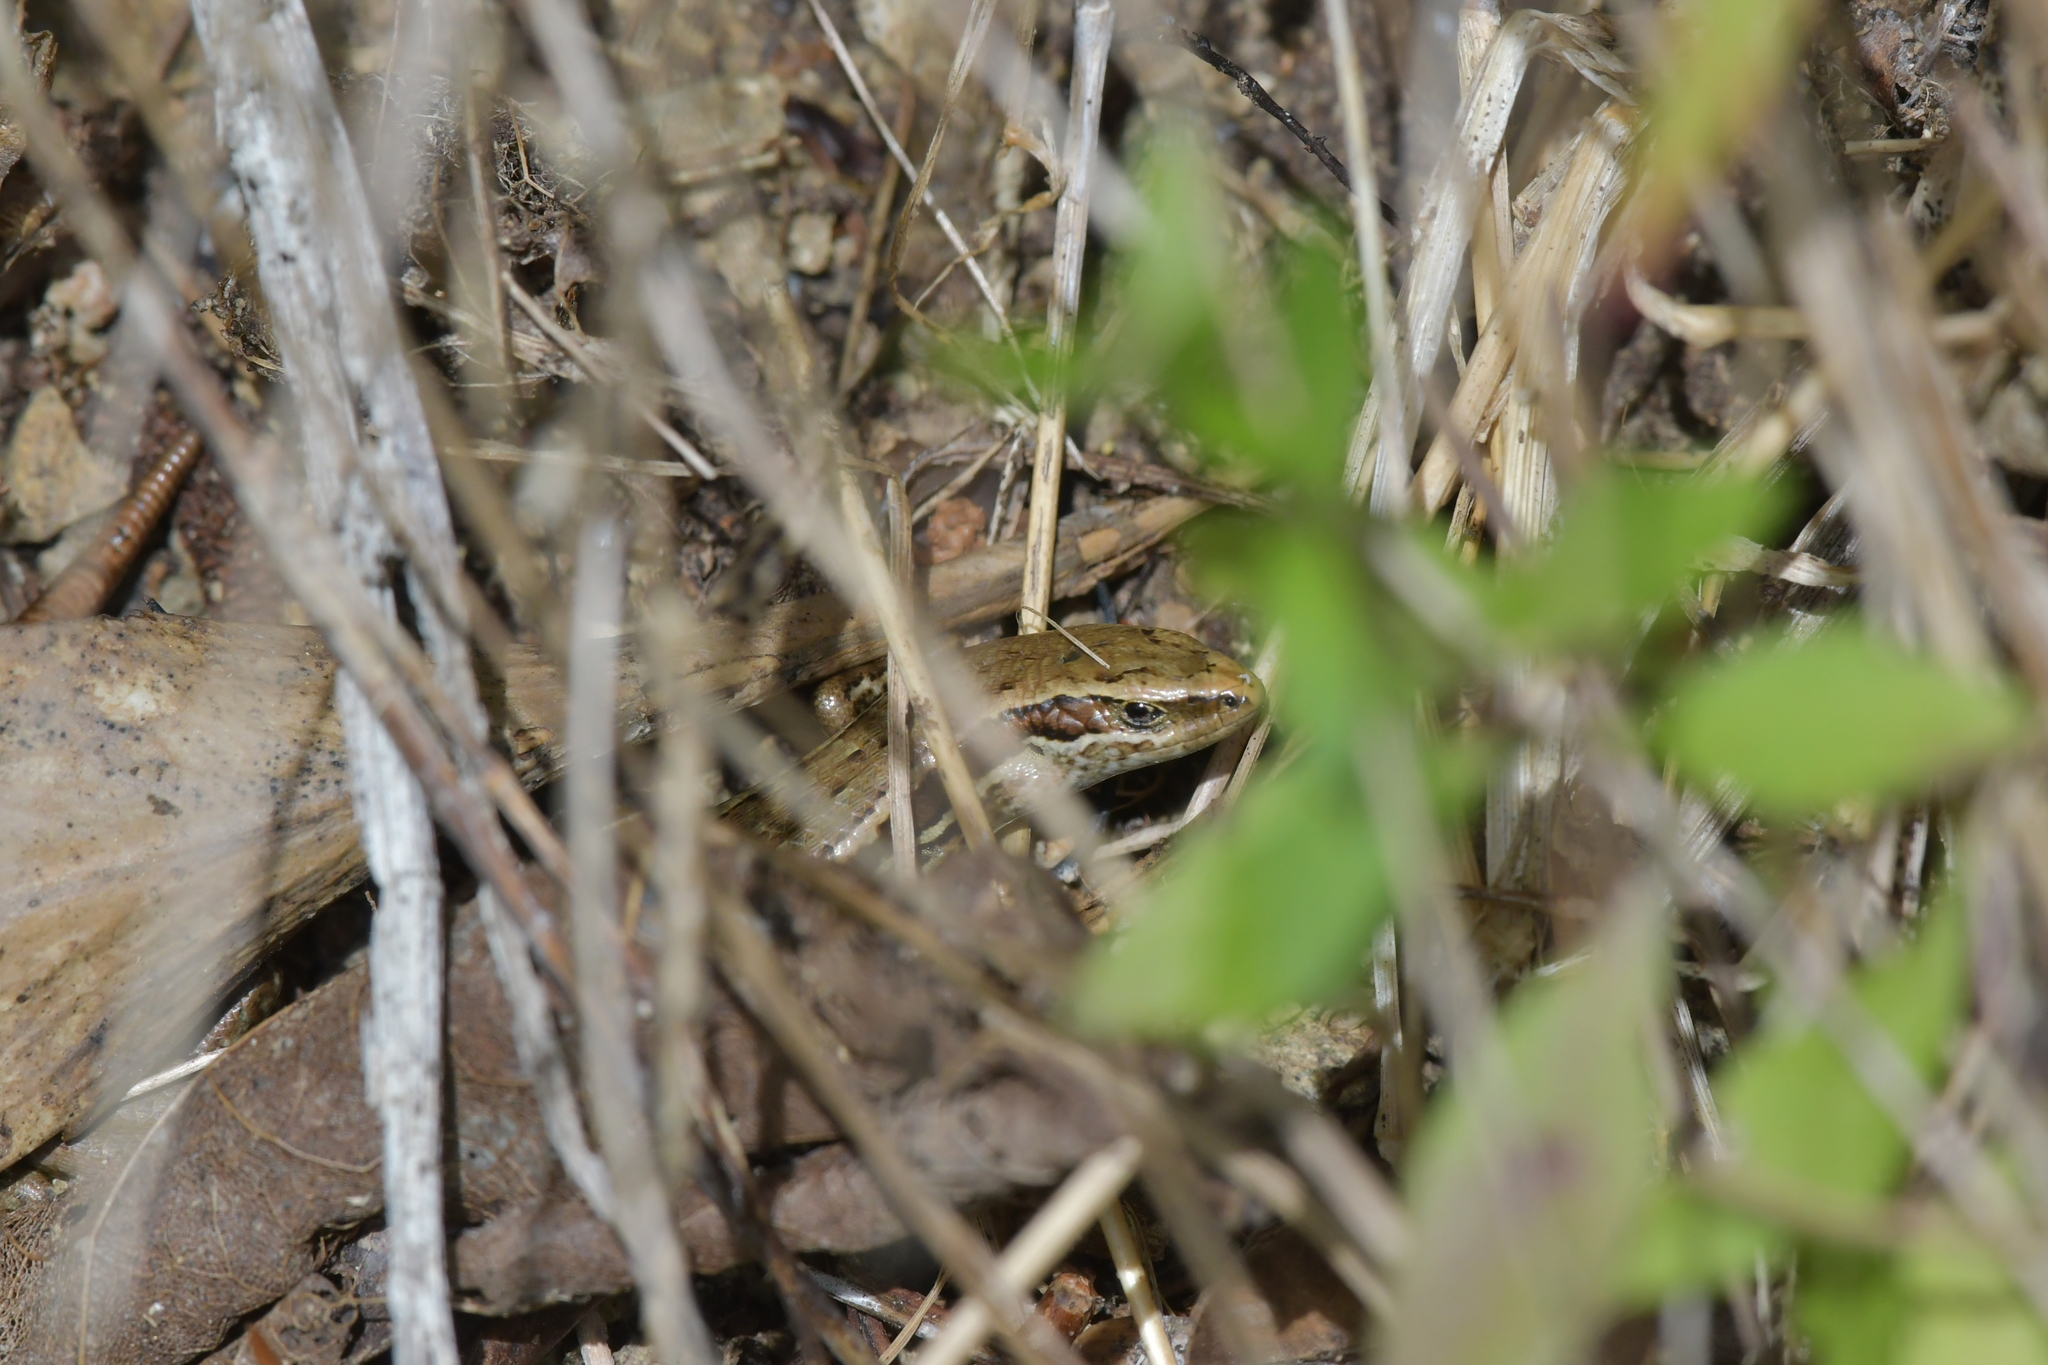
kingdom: Animalia
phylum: Chordata
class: Squamata
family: Scincidae
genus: Oligosoma
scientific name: Oligosoma polychroma
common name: Common new zealand skink
